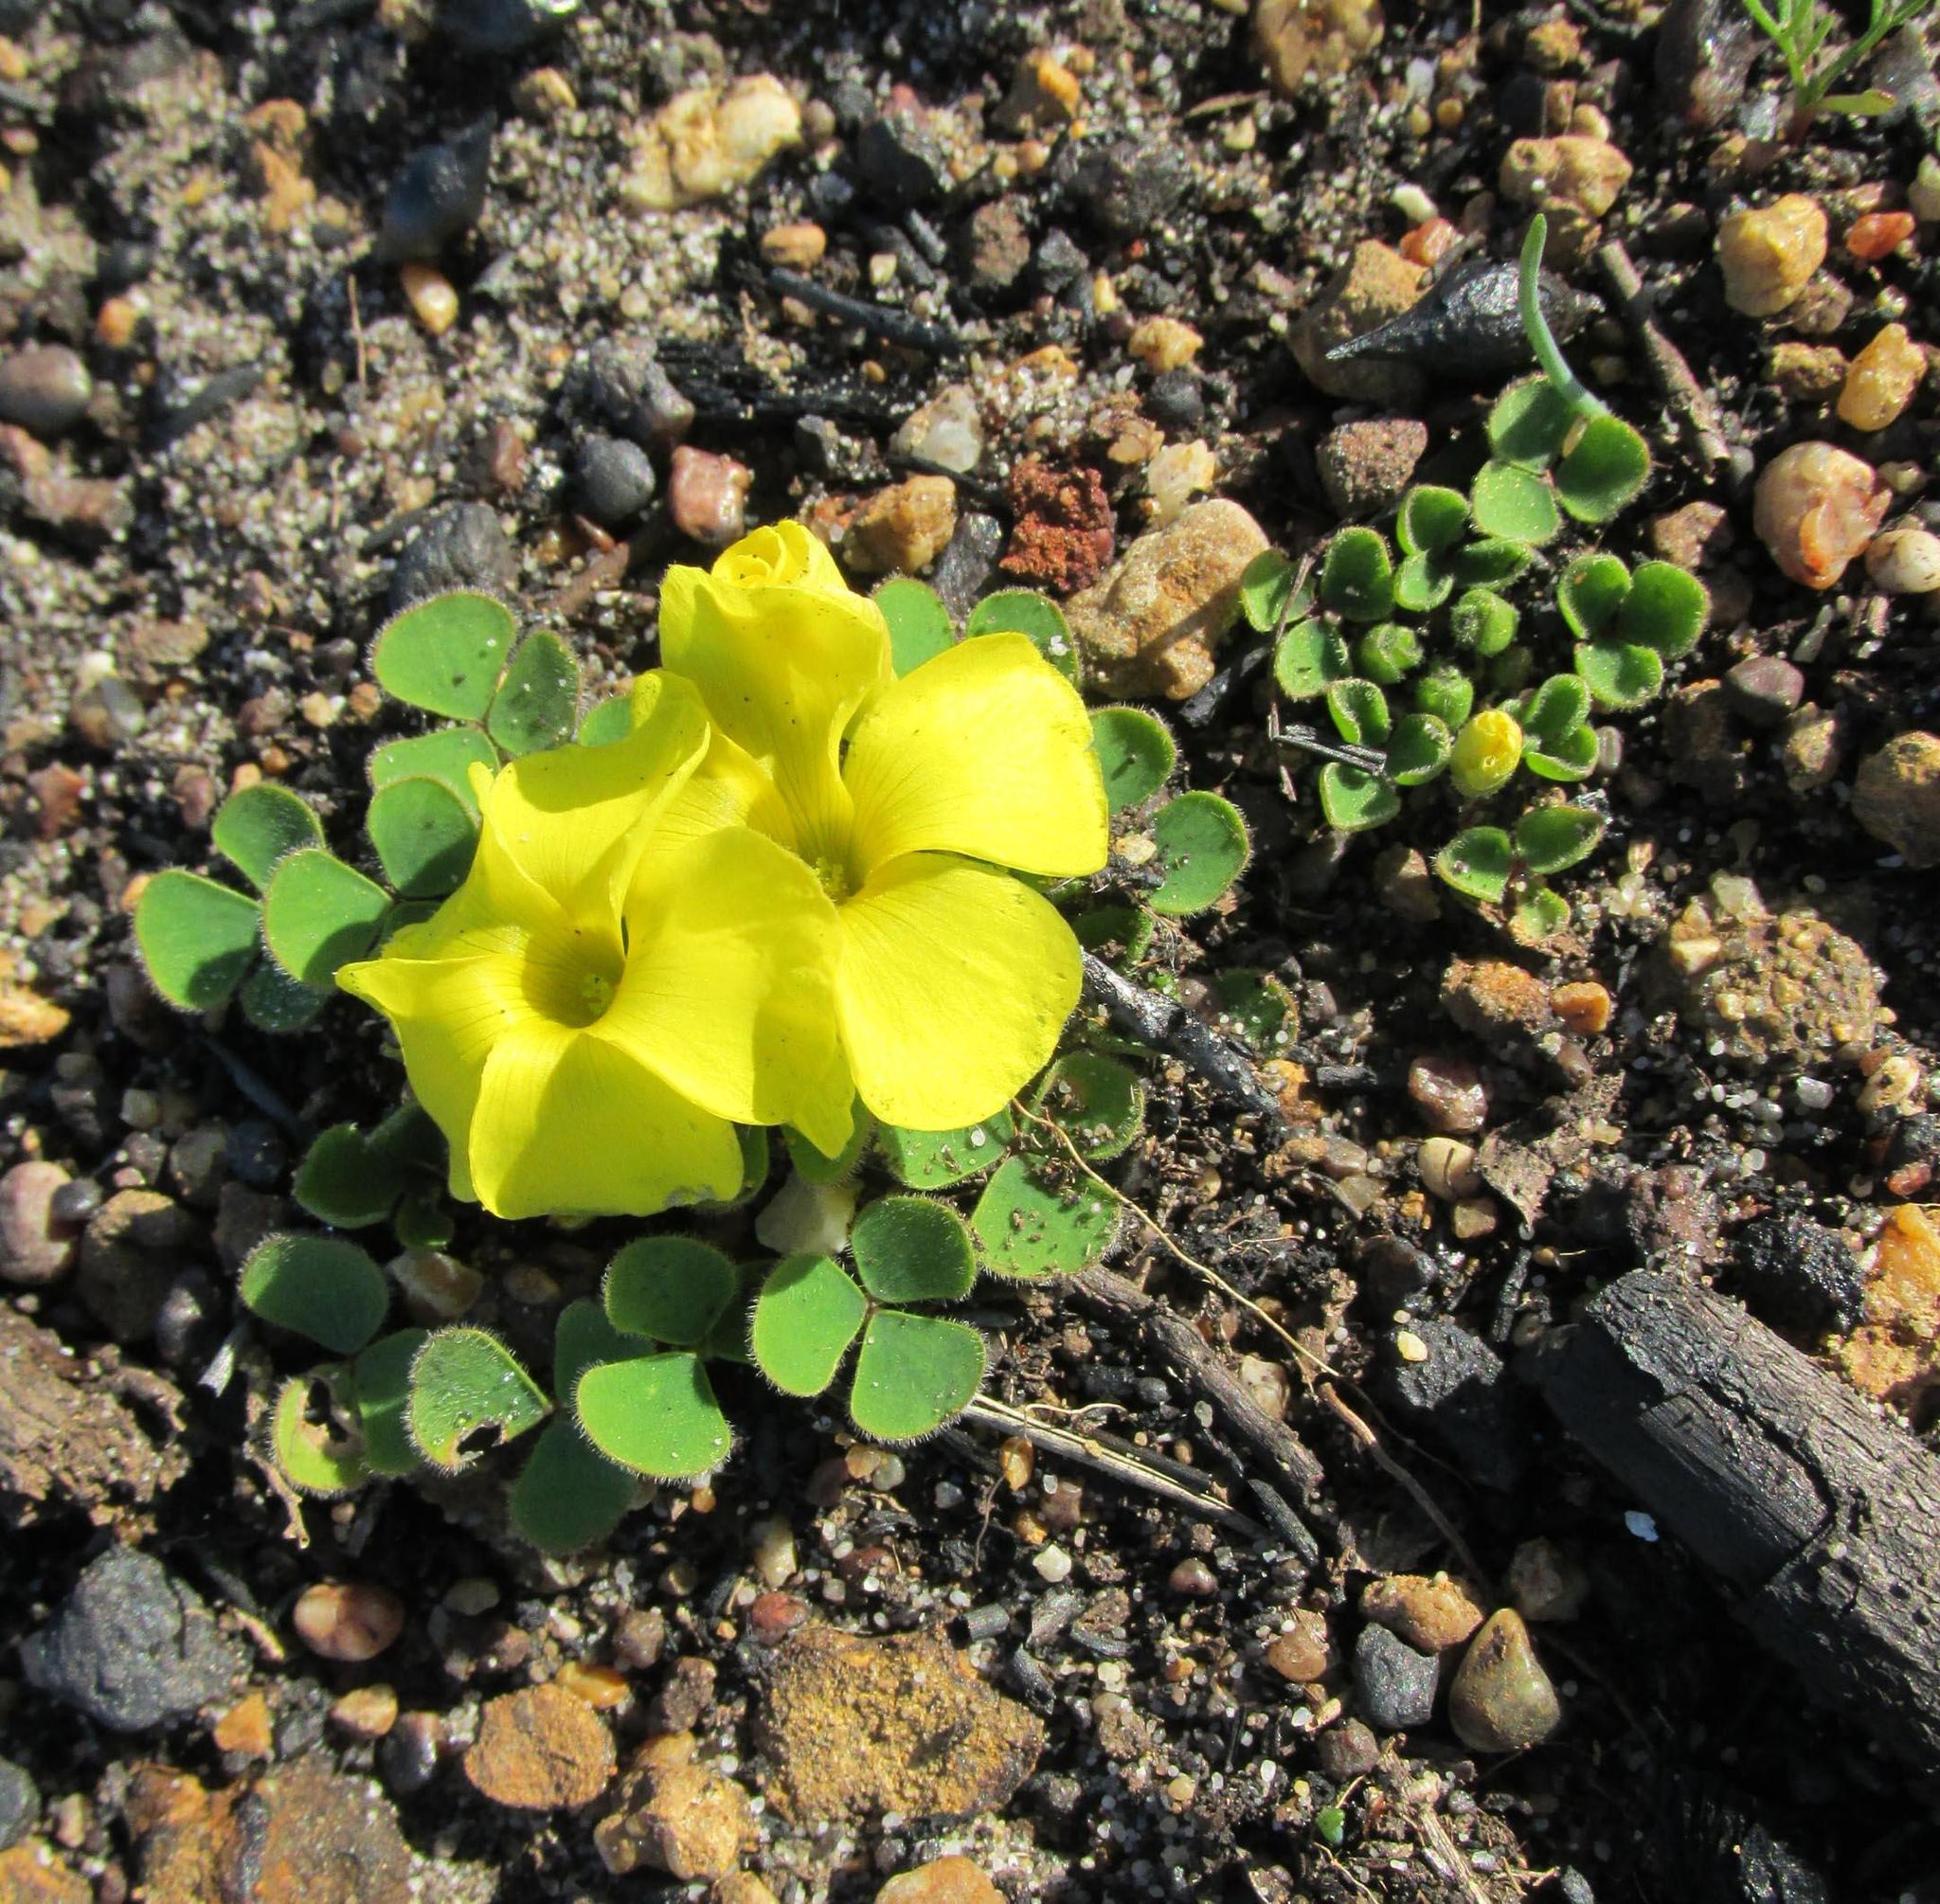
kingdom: Plantae
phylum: Tracheophyta
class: Magnoliopsida
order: Oxalidales
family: Oxalidaceae
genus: Oxalis
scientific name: Oxalis luteola
